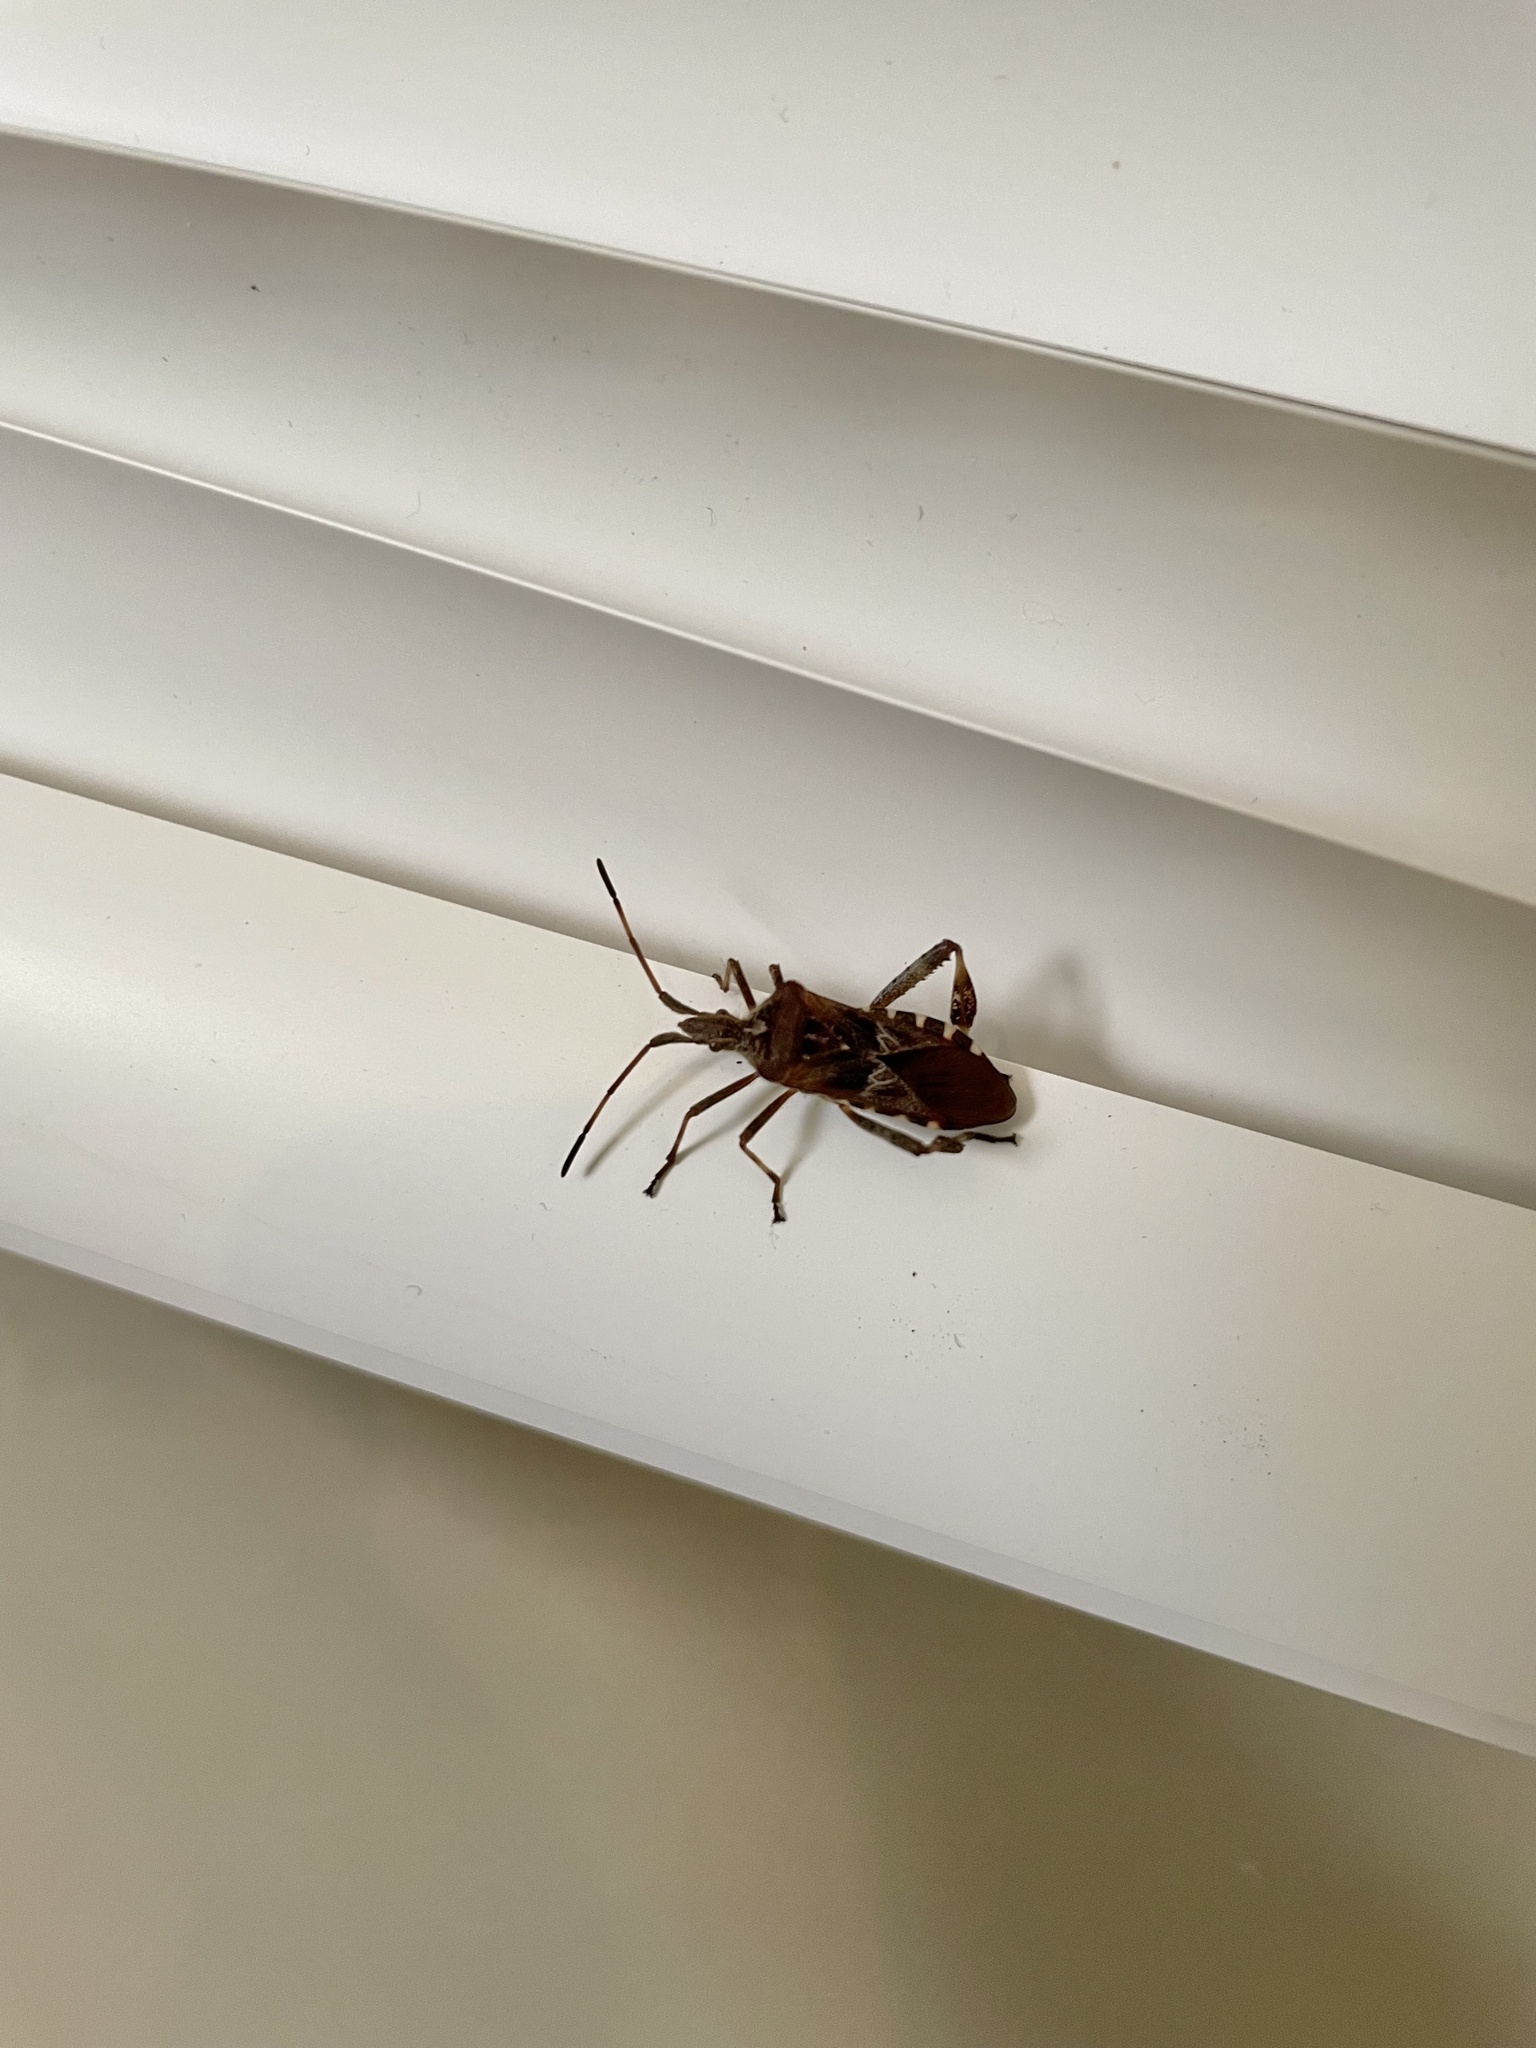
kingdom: Animalia
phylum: Arthropoda
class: Insecta
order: Hemiptera
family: Coreidae
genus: Leptoglossus
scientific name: Leptoglossus occidentalis
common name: Western conifer-seed bug
